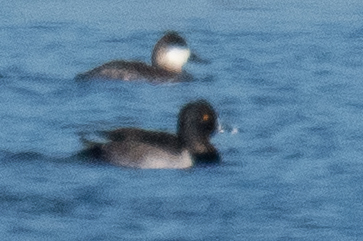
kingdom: Animalia
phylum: Chordata
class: Aves
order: Anseriformes
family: Anatidae
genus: Aythya
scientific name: Aythya collaris
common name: Ring-necked duck
